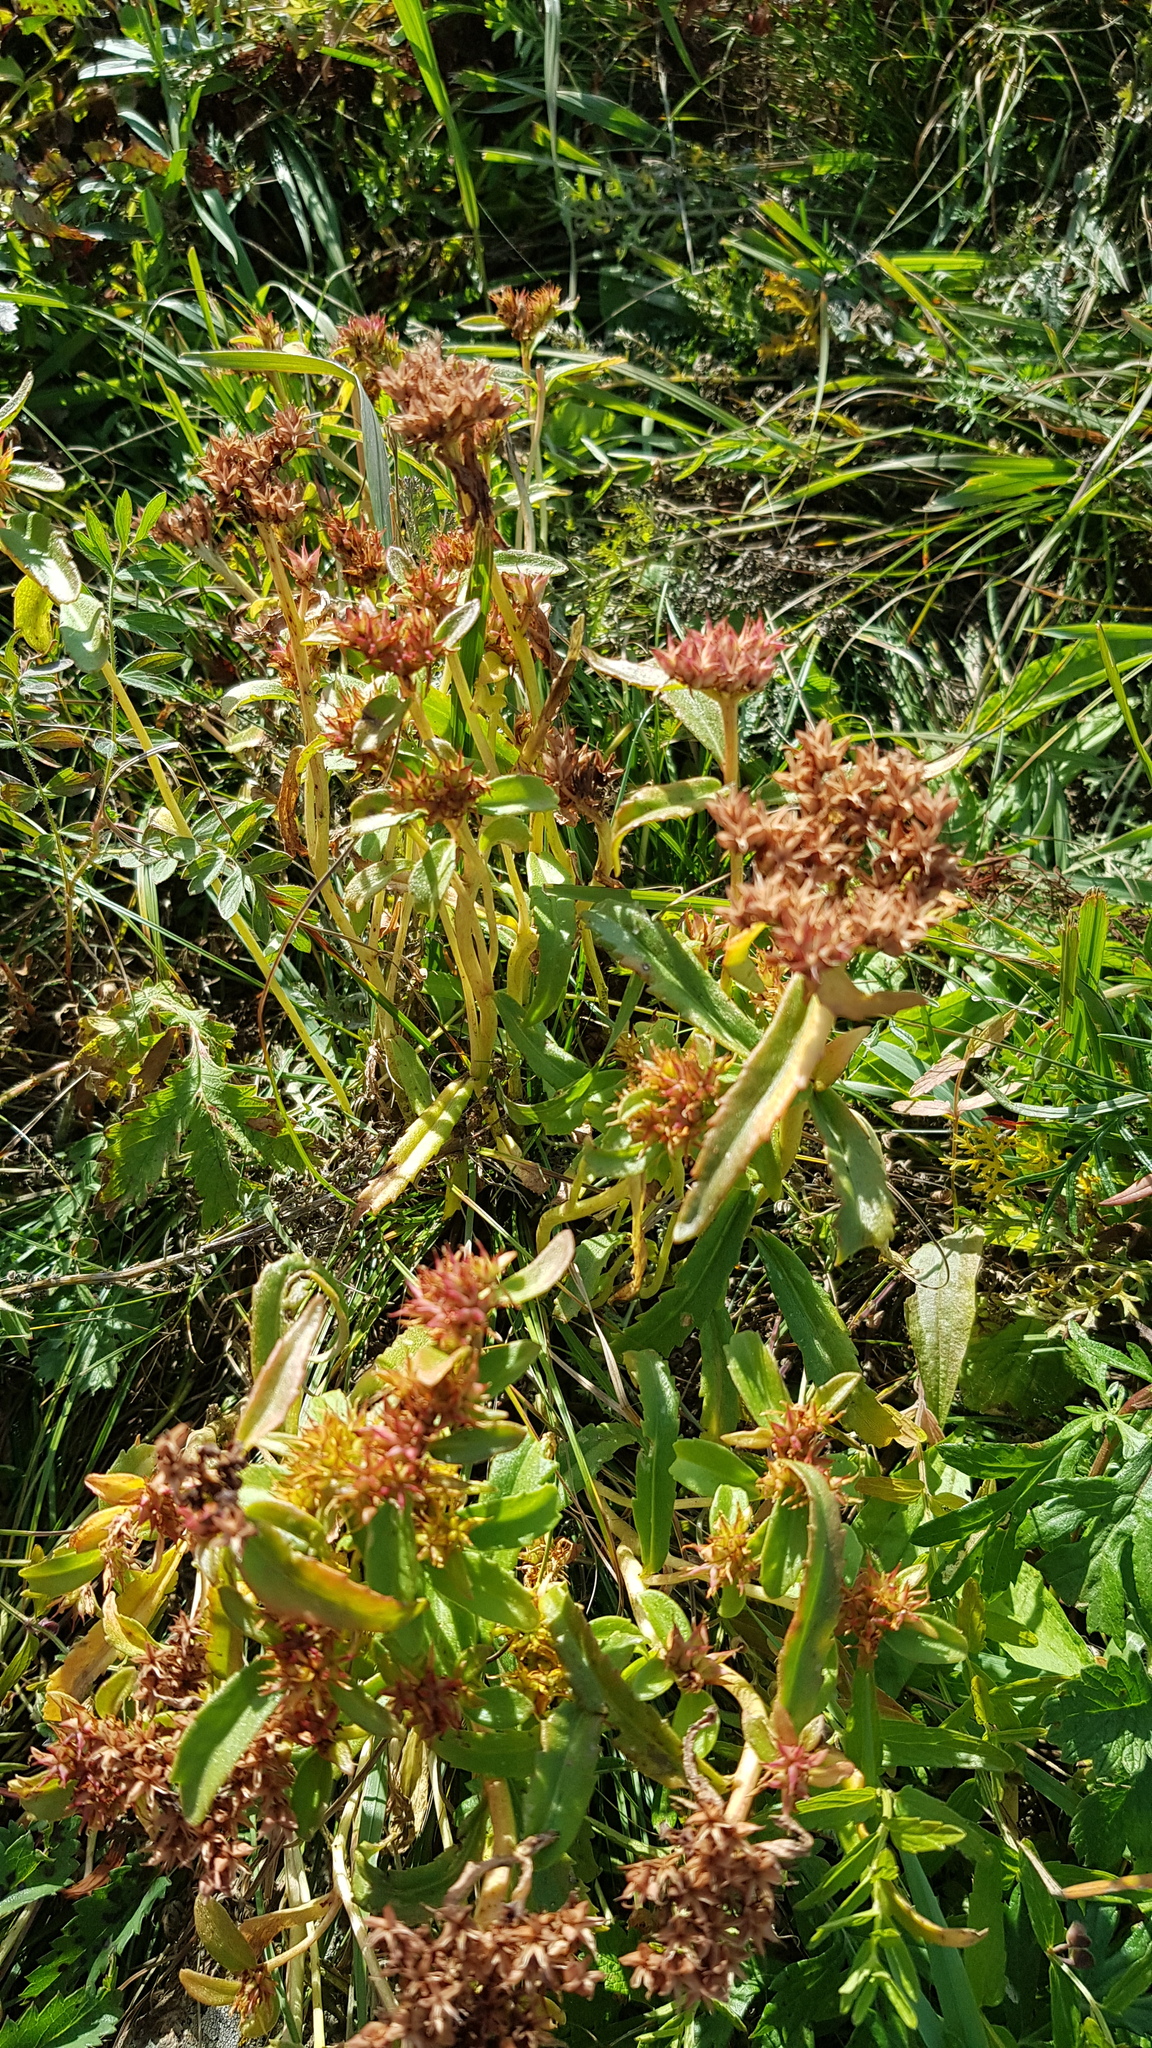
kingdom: Plantae
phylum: Tracheophyta
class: Magnoliopsida
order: Saxifragales
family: Crassulaceae
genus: Phedimus
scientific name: Phedimus aizoon
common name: Orpin aizoon
